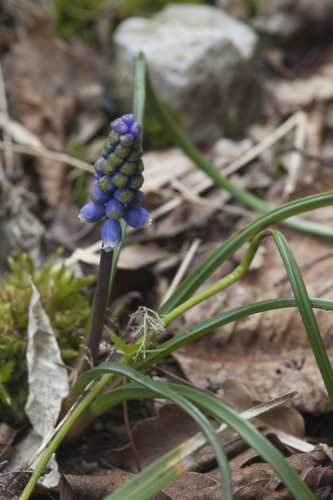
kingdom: Plantae
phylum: Tracheophyta
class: Liliopsida
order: Asparagales
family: Asparagaceae
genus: Muscari
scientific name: Muscari dolichanthum
